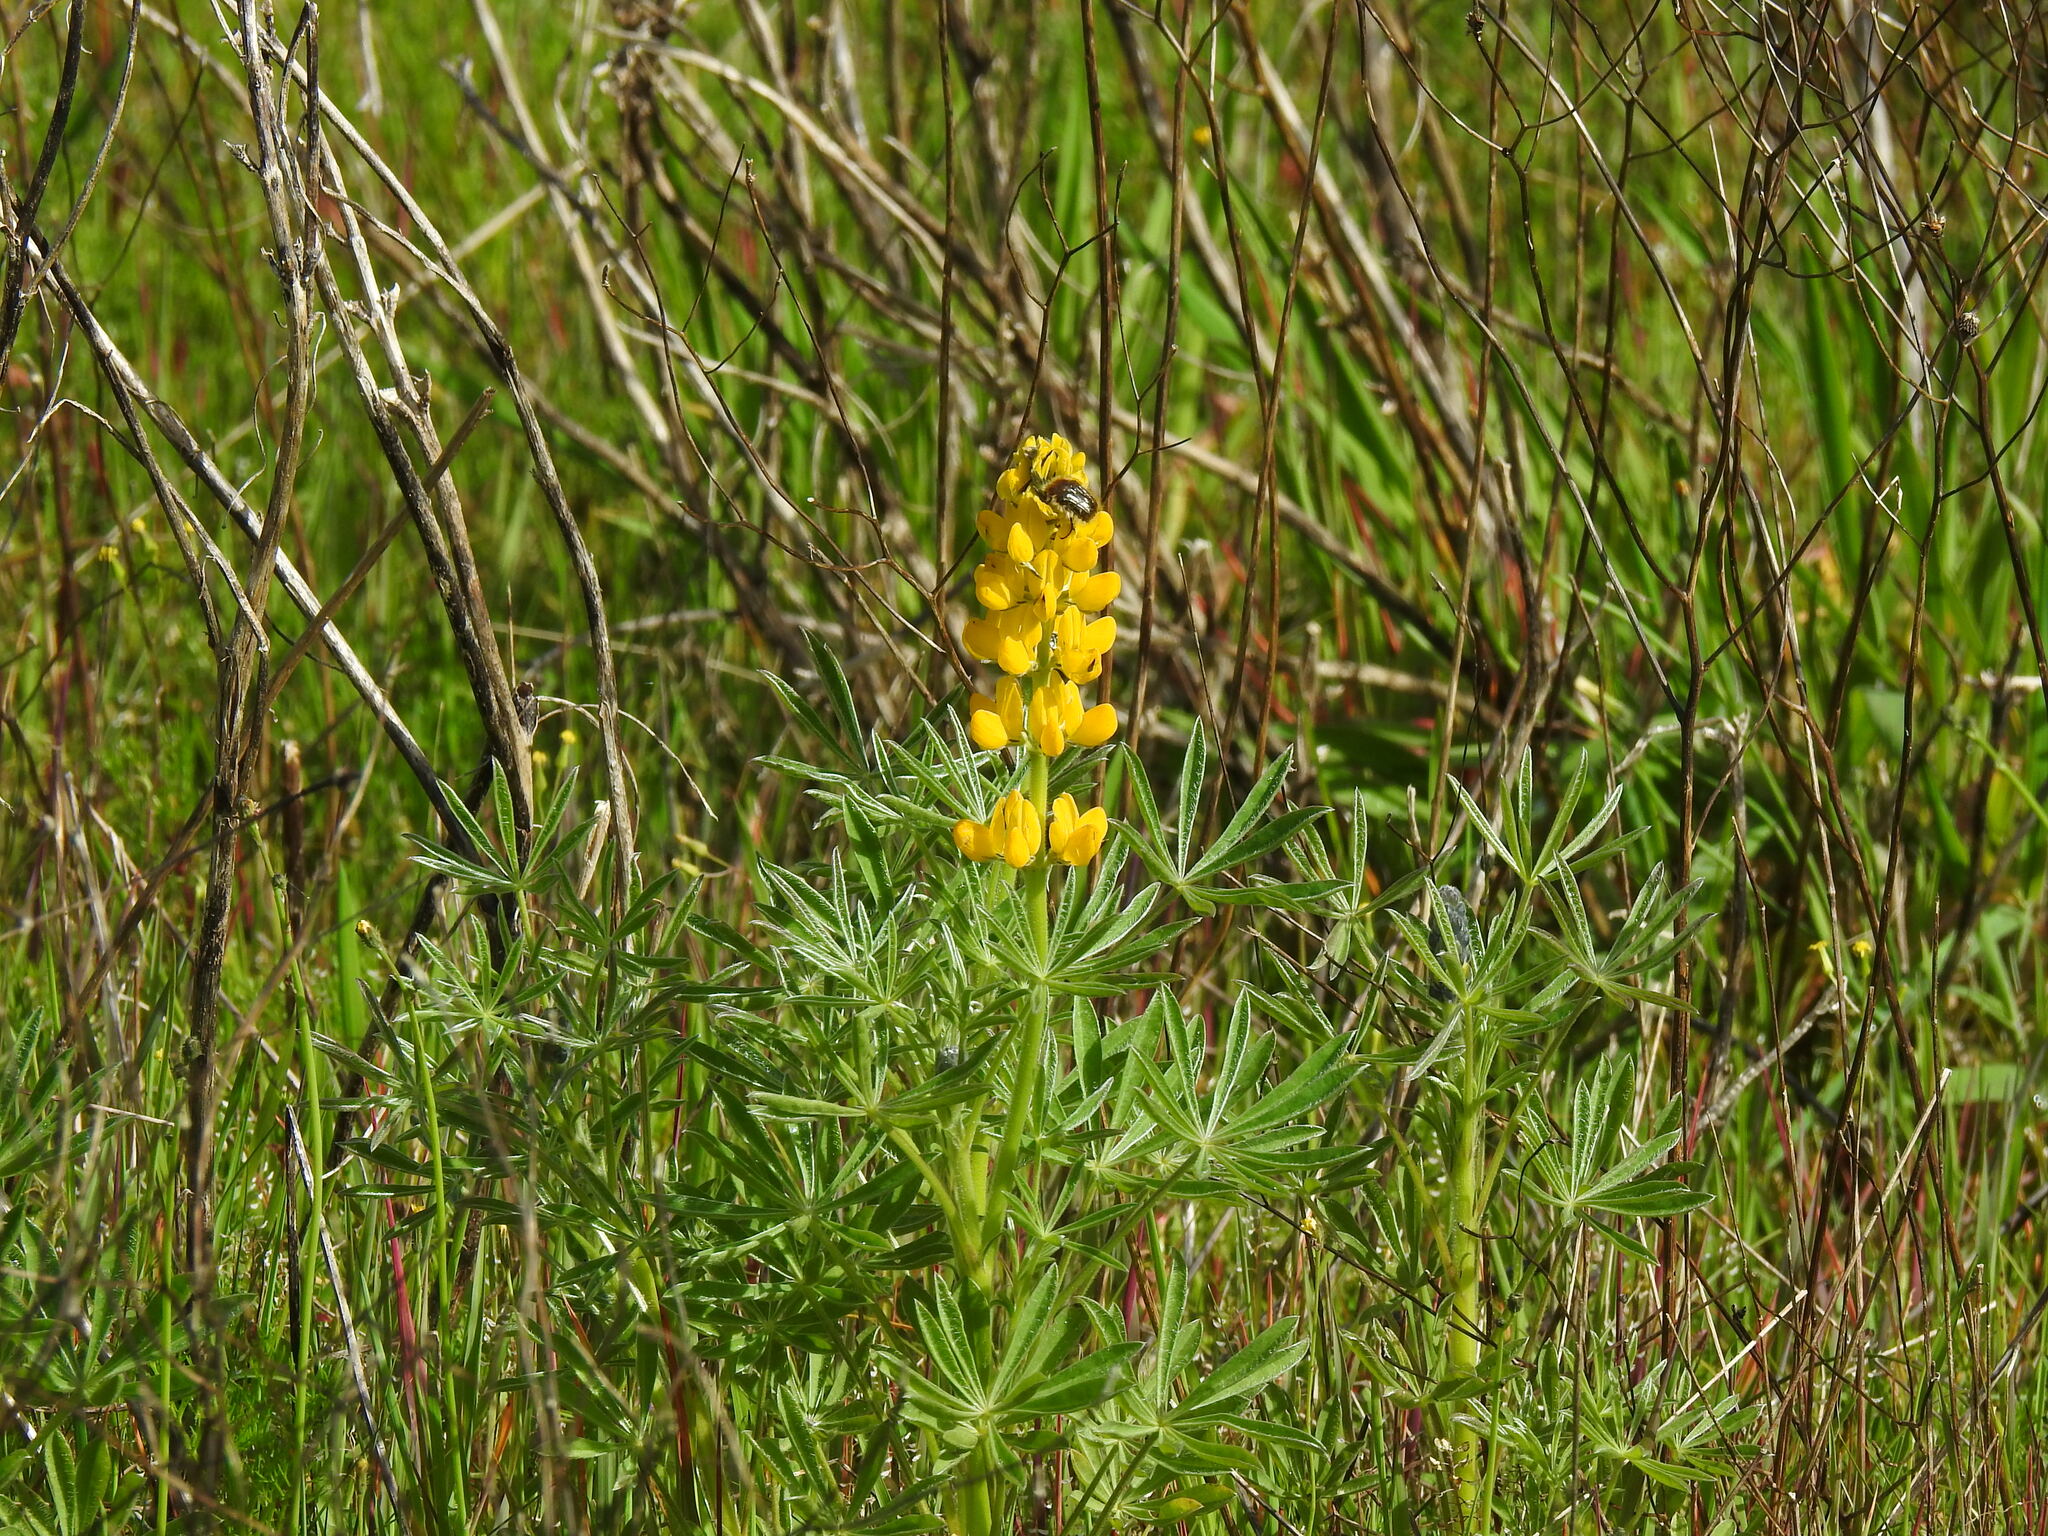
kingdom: Plantae
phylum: Tracheophyta
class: Magnoliopsida
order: Fabales
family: Fabaceae
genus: Lupinus
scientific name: Lupinus luteus
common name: European yellow lupine
